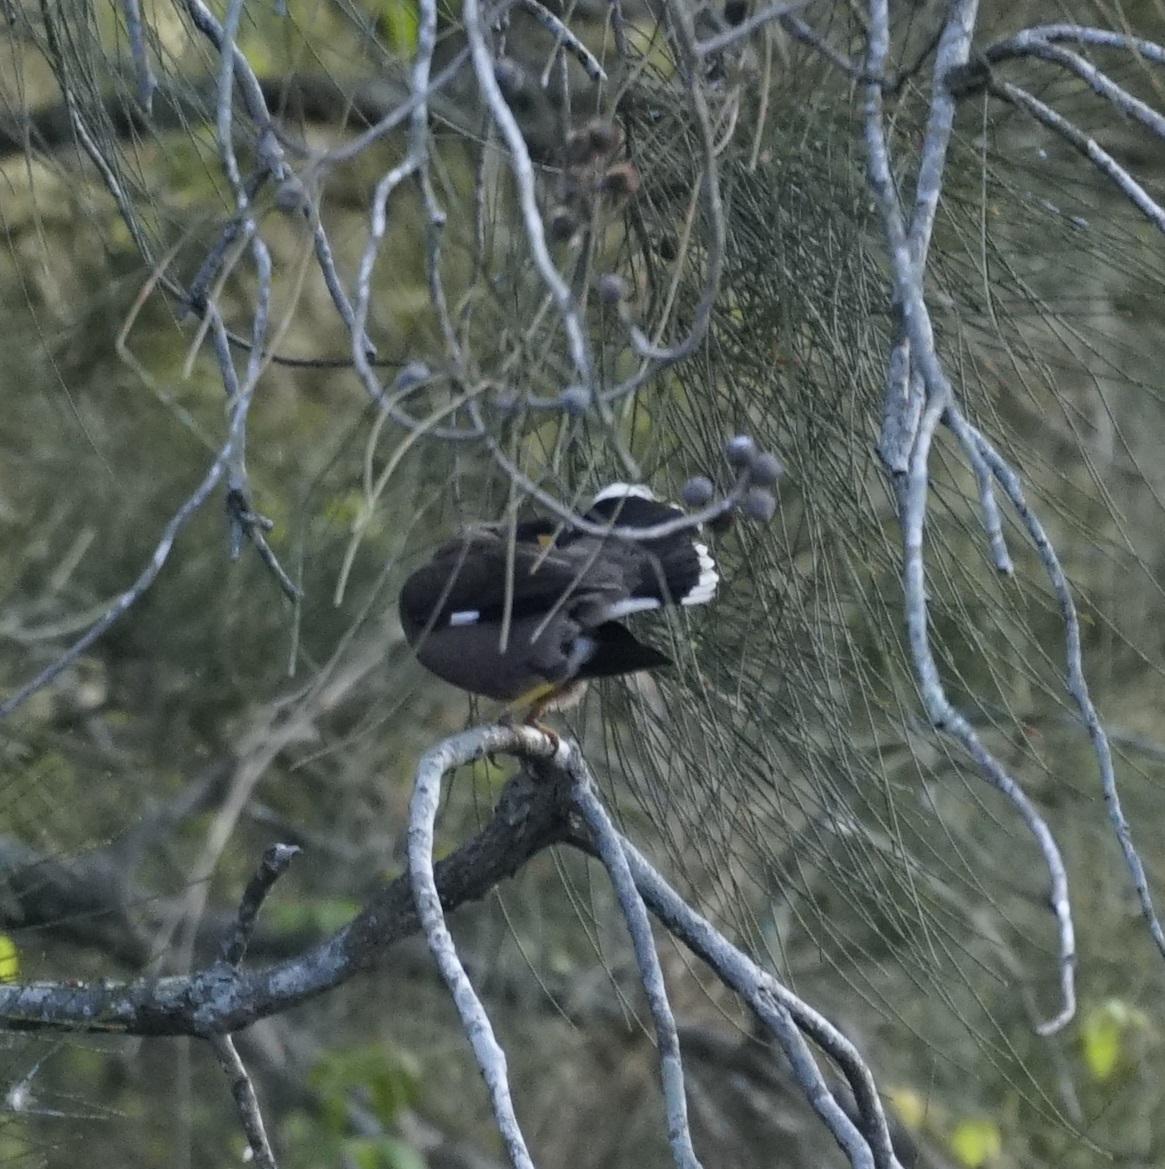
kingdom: Animalia
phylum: Chordata
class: Aves
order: Passeriformes
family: Sturnidae
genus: Acridotheres
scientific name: Acridotheres tristis
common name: Common myna
